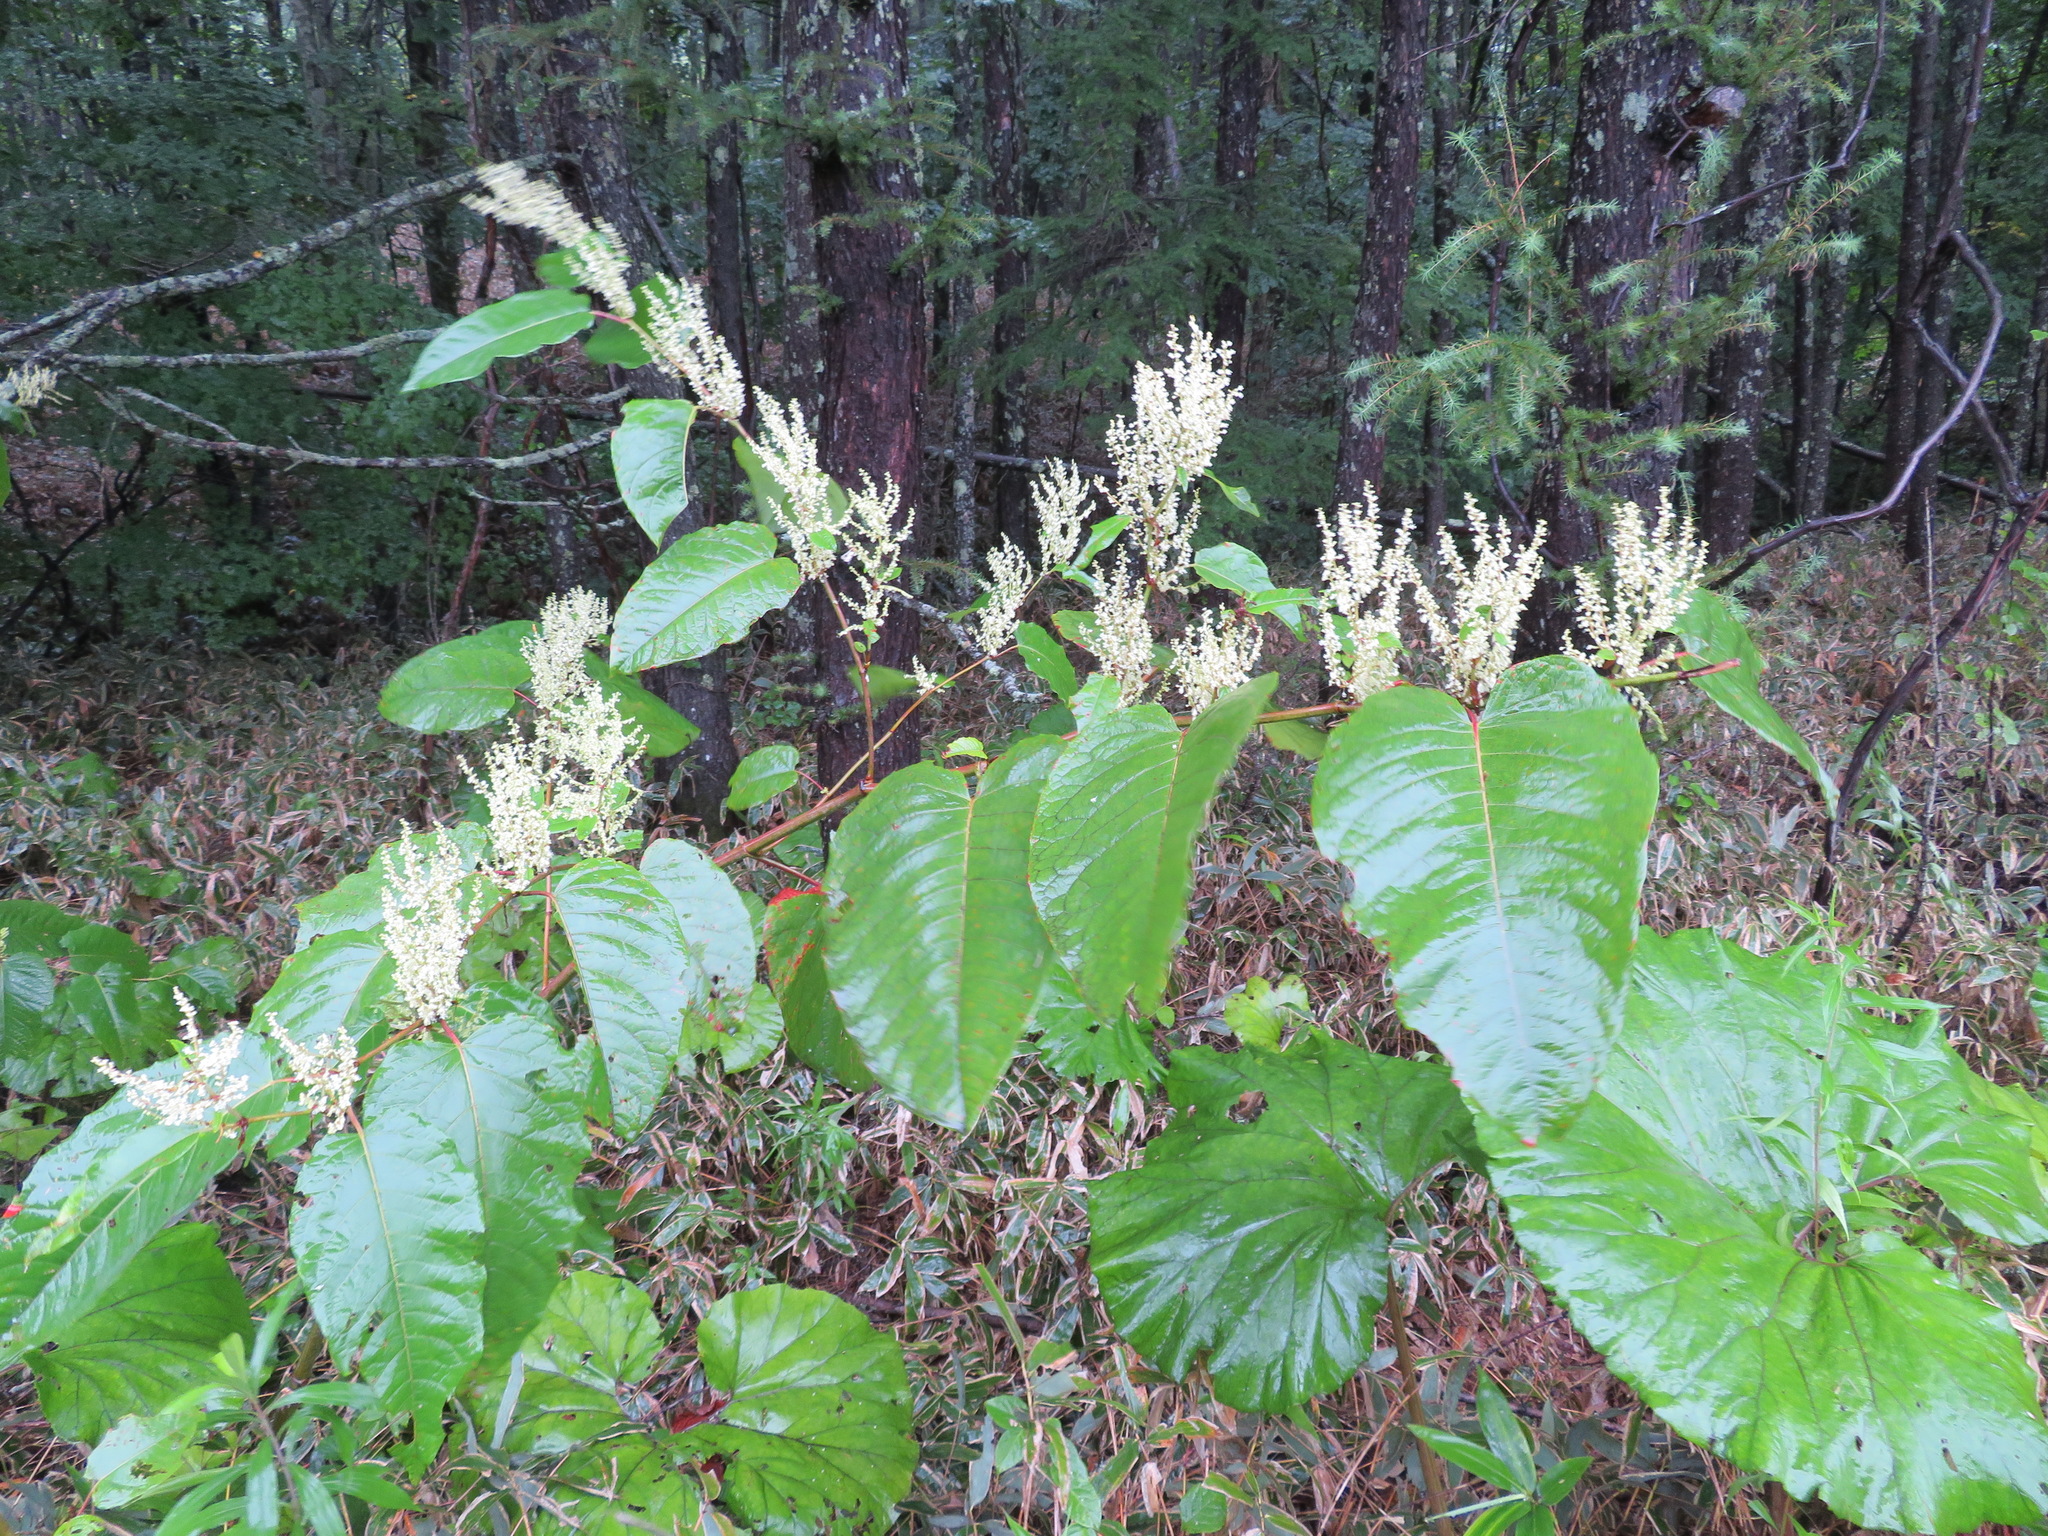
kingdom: Plantae
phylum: Tracheophyta
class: Magnoliopsida
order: Caryophyllales
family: Polygonaceae
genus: Reynoutria
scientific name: Reynoutria sachalinensis
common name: Giant knotweed
